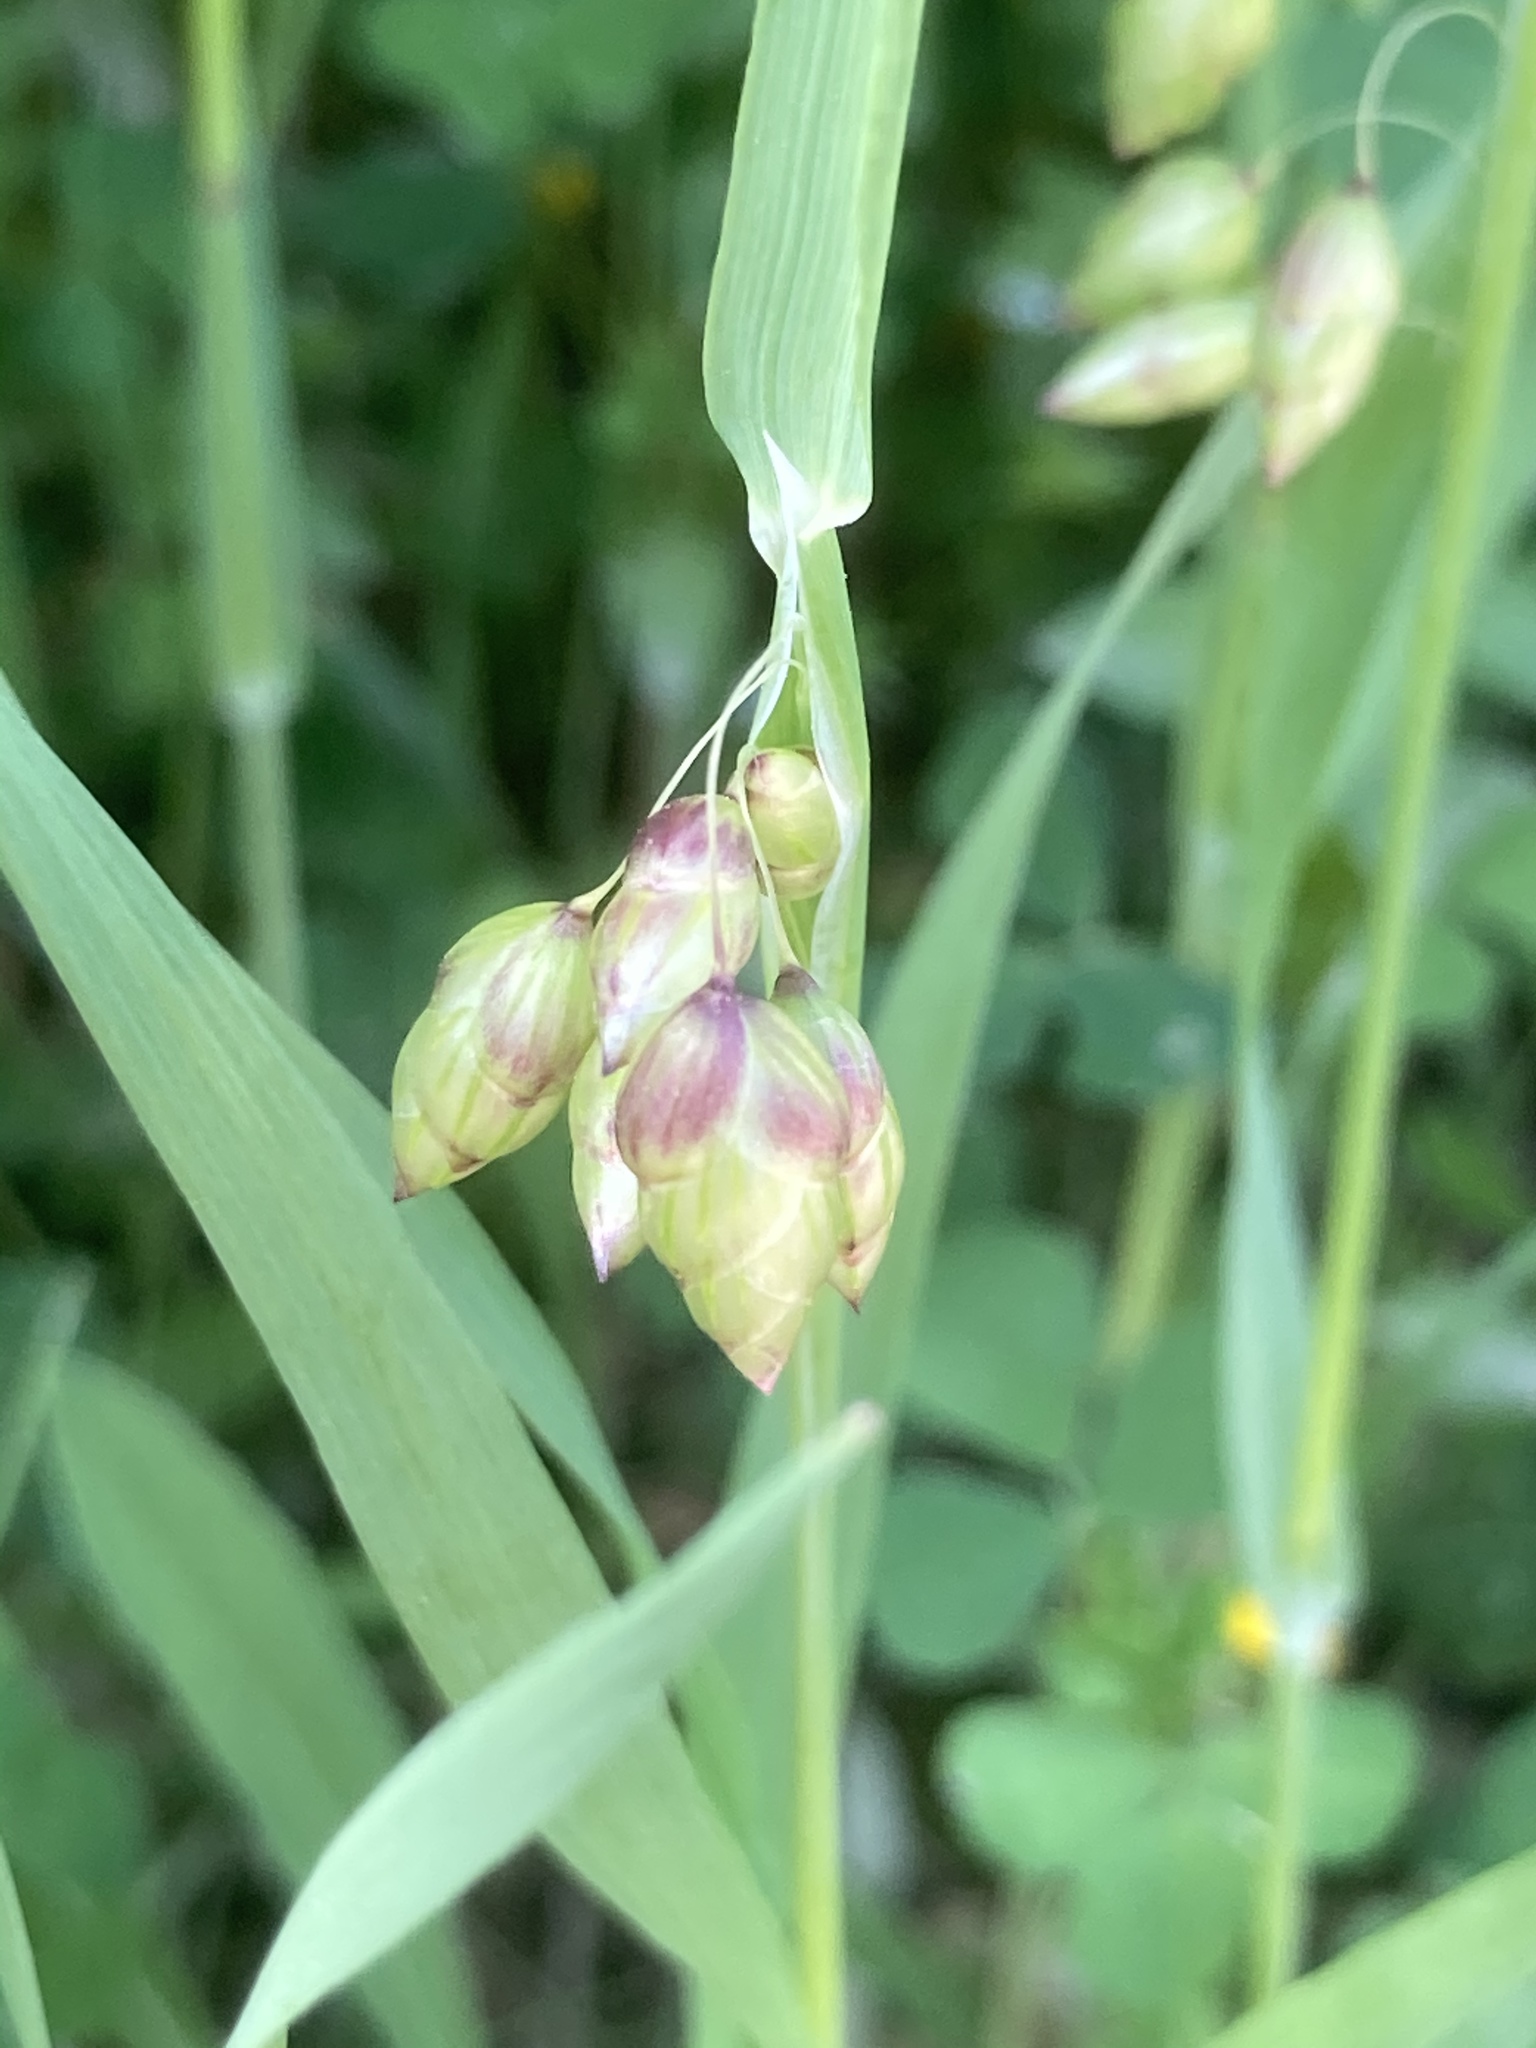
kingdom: Plantae
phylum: Tracheophyta
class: Liliopsida
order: Poales
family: Poaceae
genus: Briza
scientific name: Briza maxima
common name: Big quakinggrass
